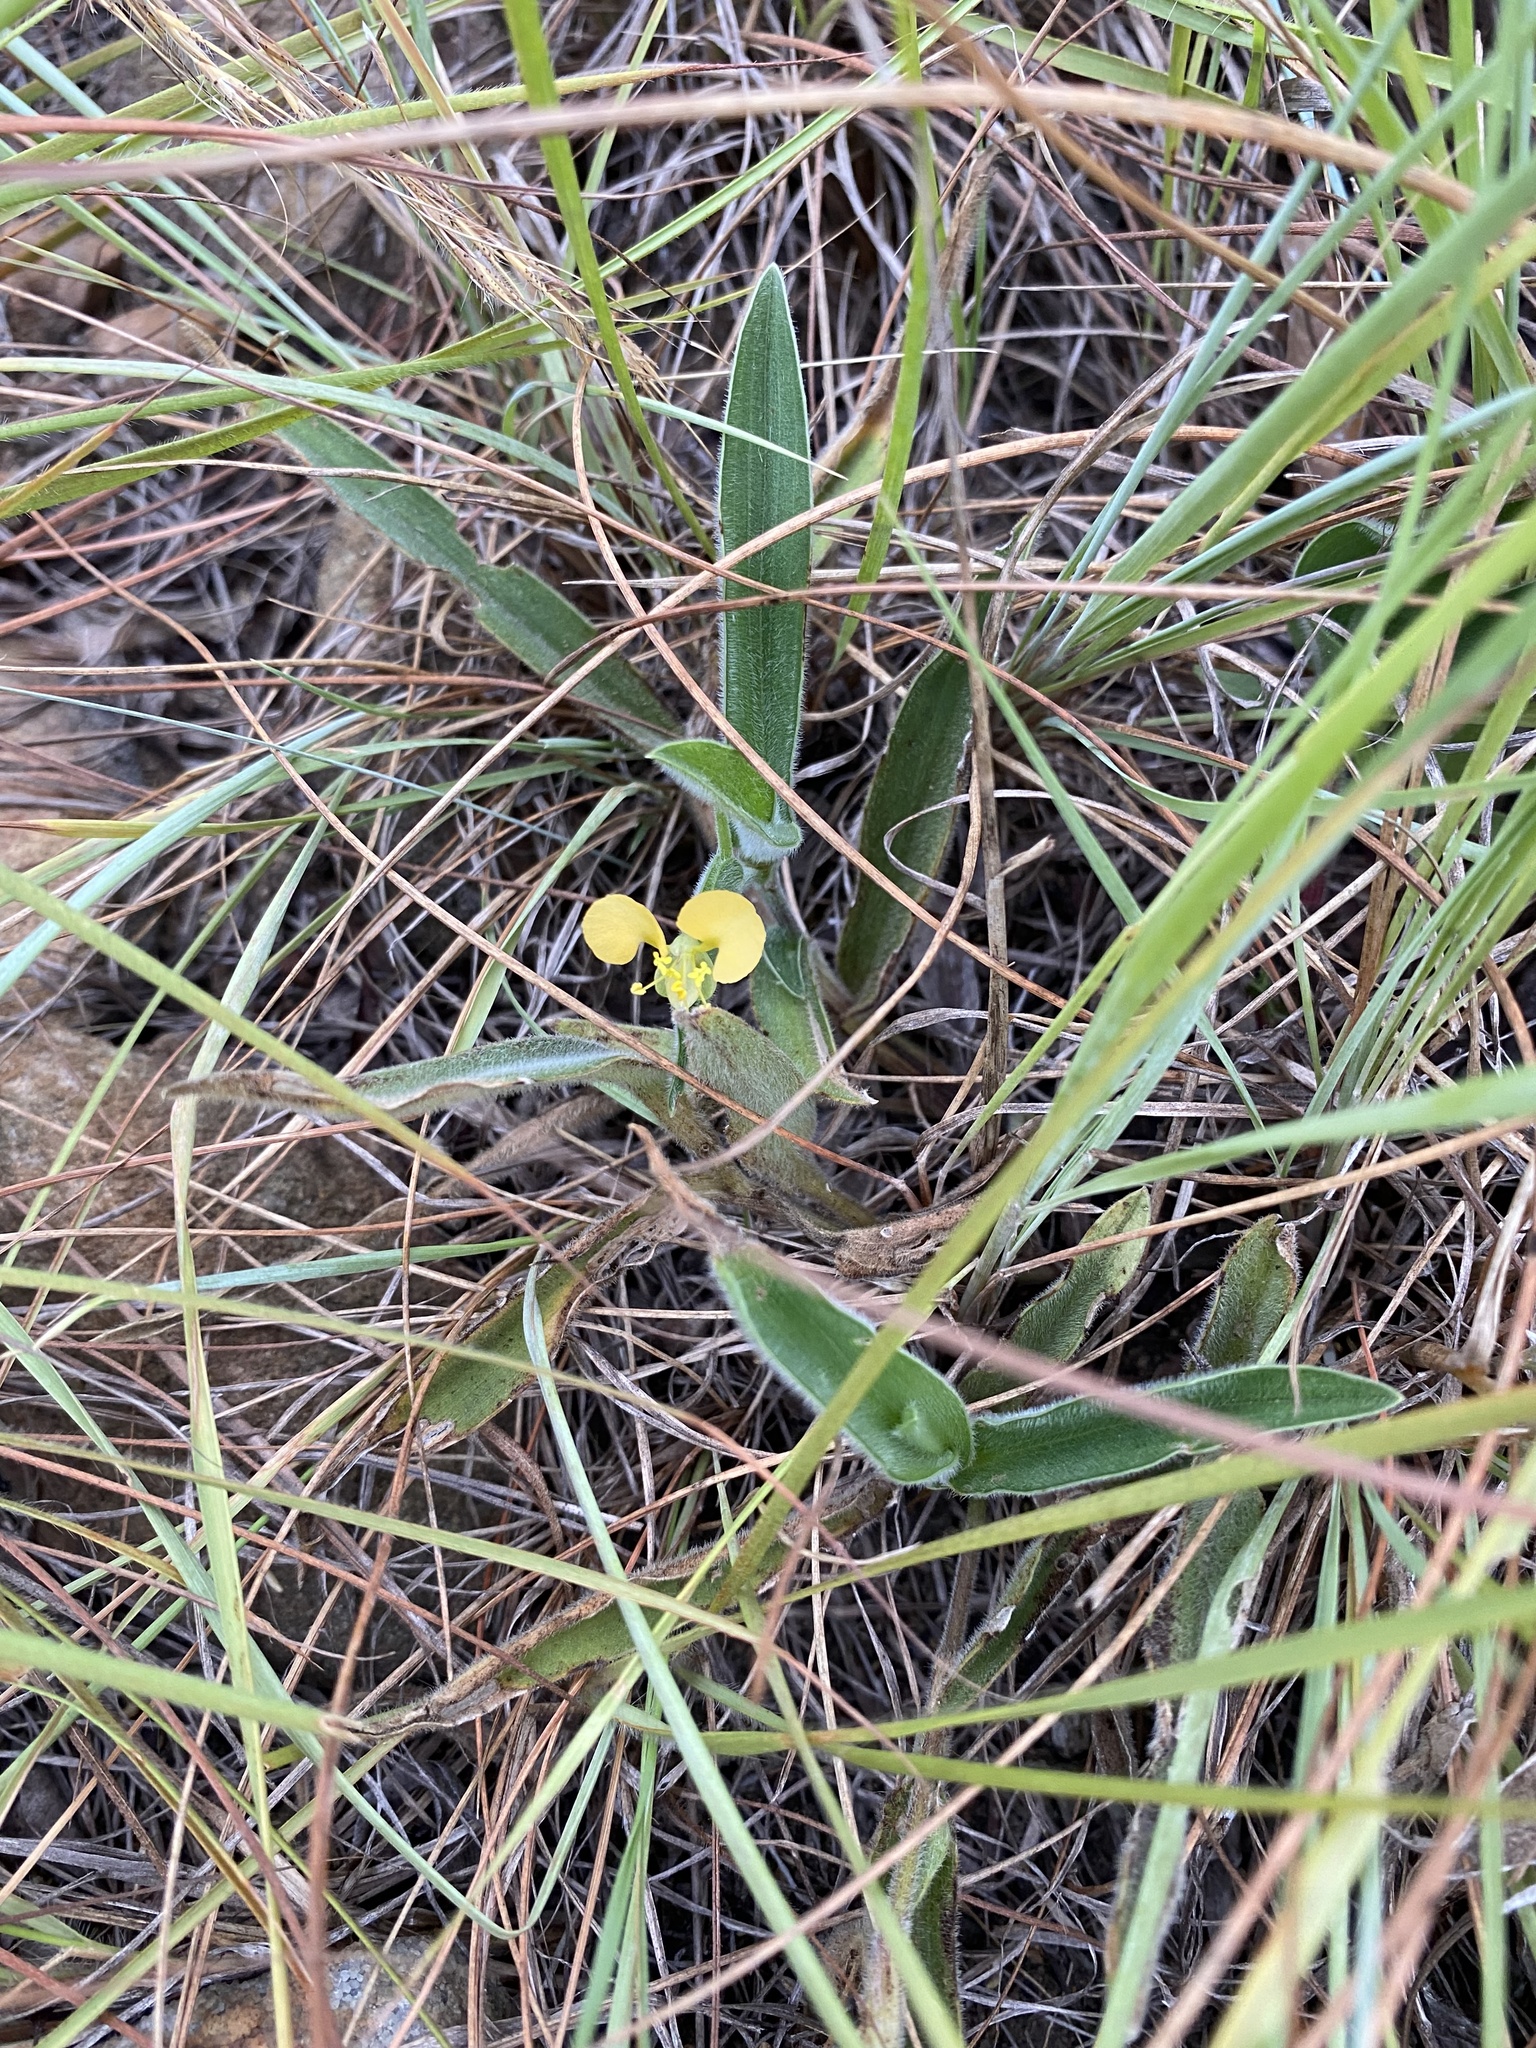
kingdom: Plantae
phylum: Tracheophyta
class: Liliopsida
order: Commelinales
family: Commelinaceae
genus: Commelina
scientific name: Commelina africana
